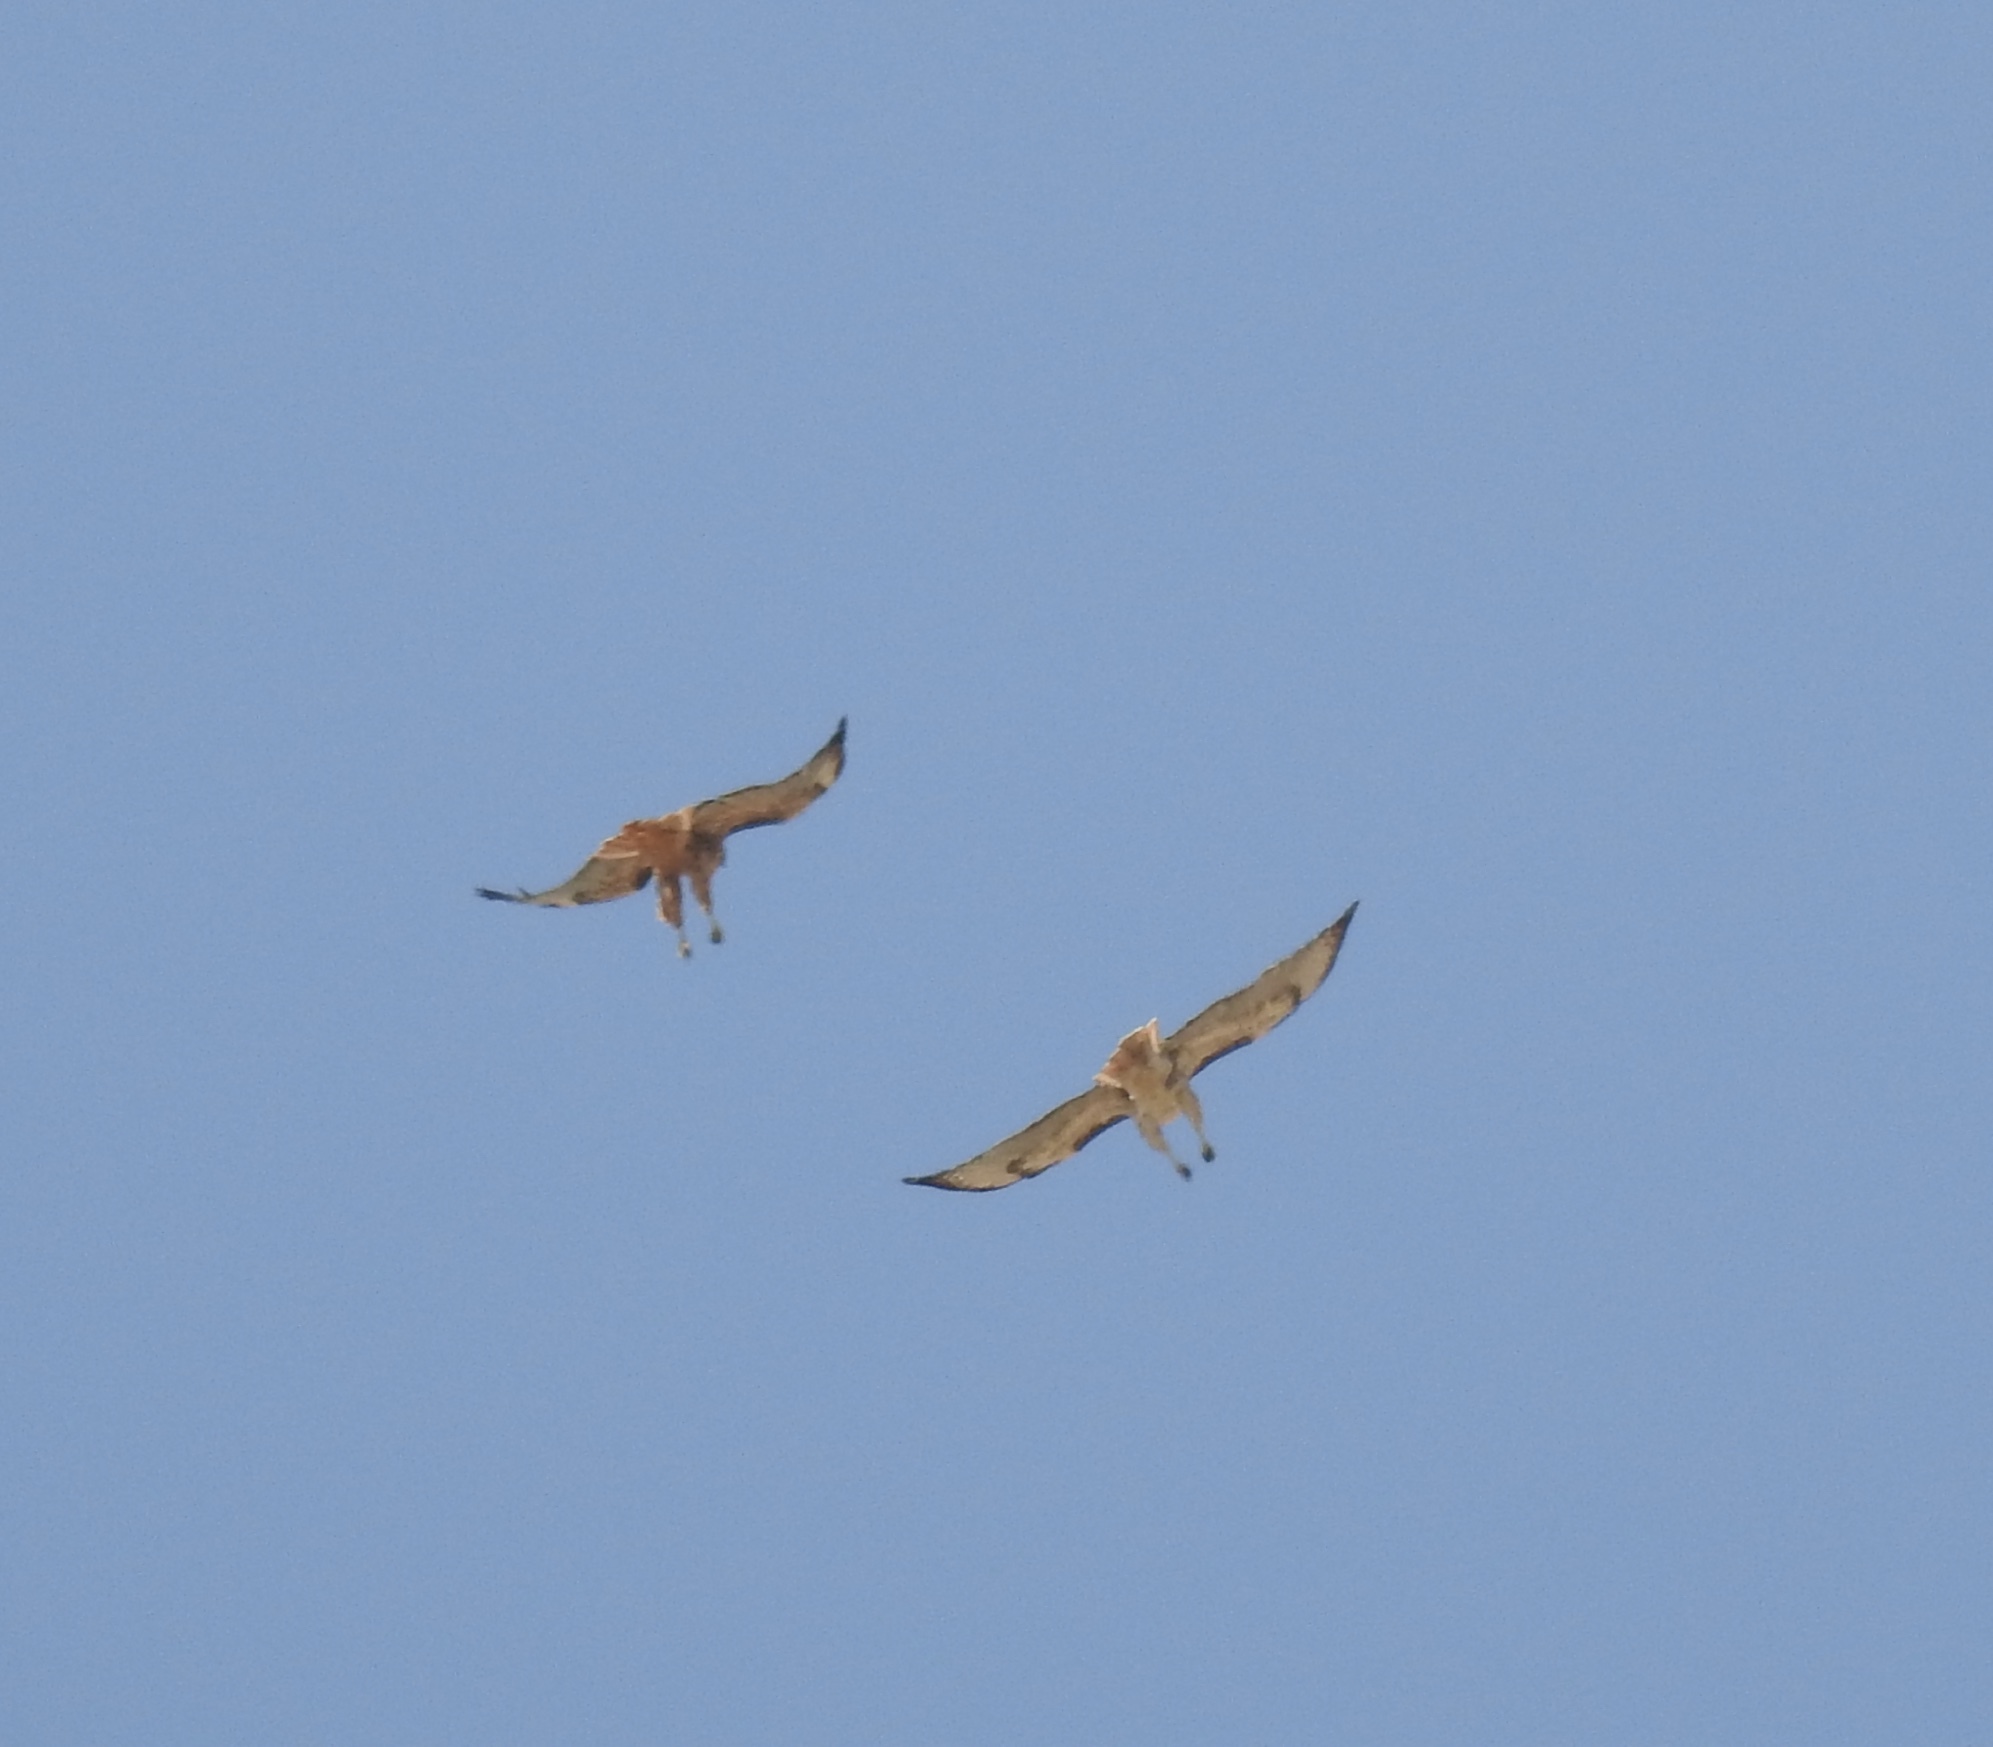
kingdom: Animalia
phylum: Chordata
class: Aves
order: Accipitriformes
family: Accipitridae
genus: Buteo
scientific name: Buteo jamaicensis
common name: Red-tailed hawk
